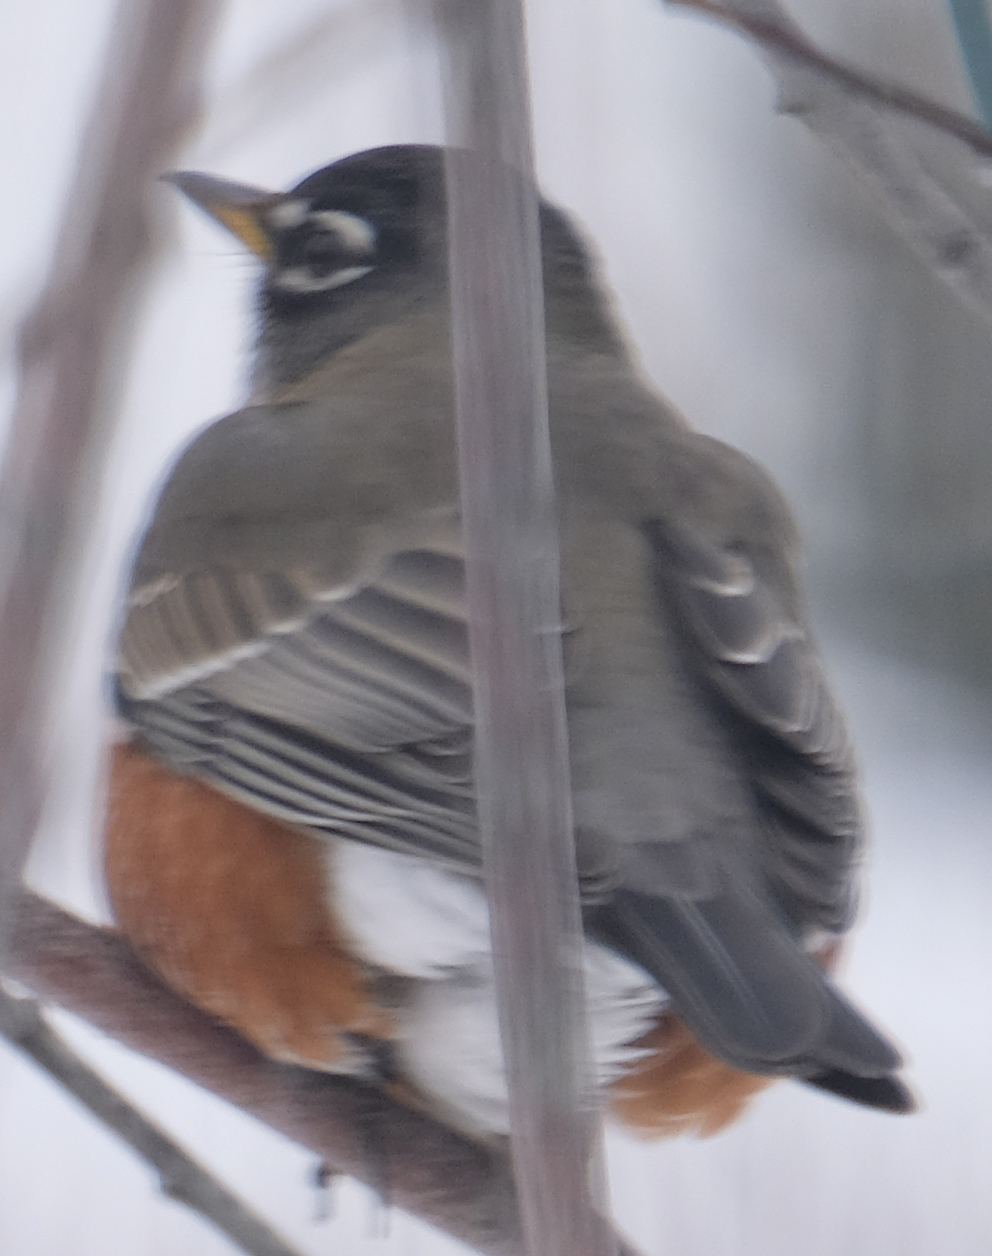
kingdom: Animalia
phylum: Chordata
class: Aves
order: Passeriformes
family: Turdidae
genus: Turdus
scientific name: Turdus migratorius
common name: American robin
